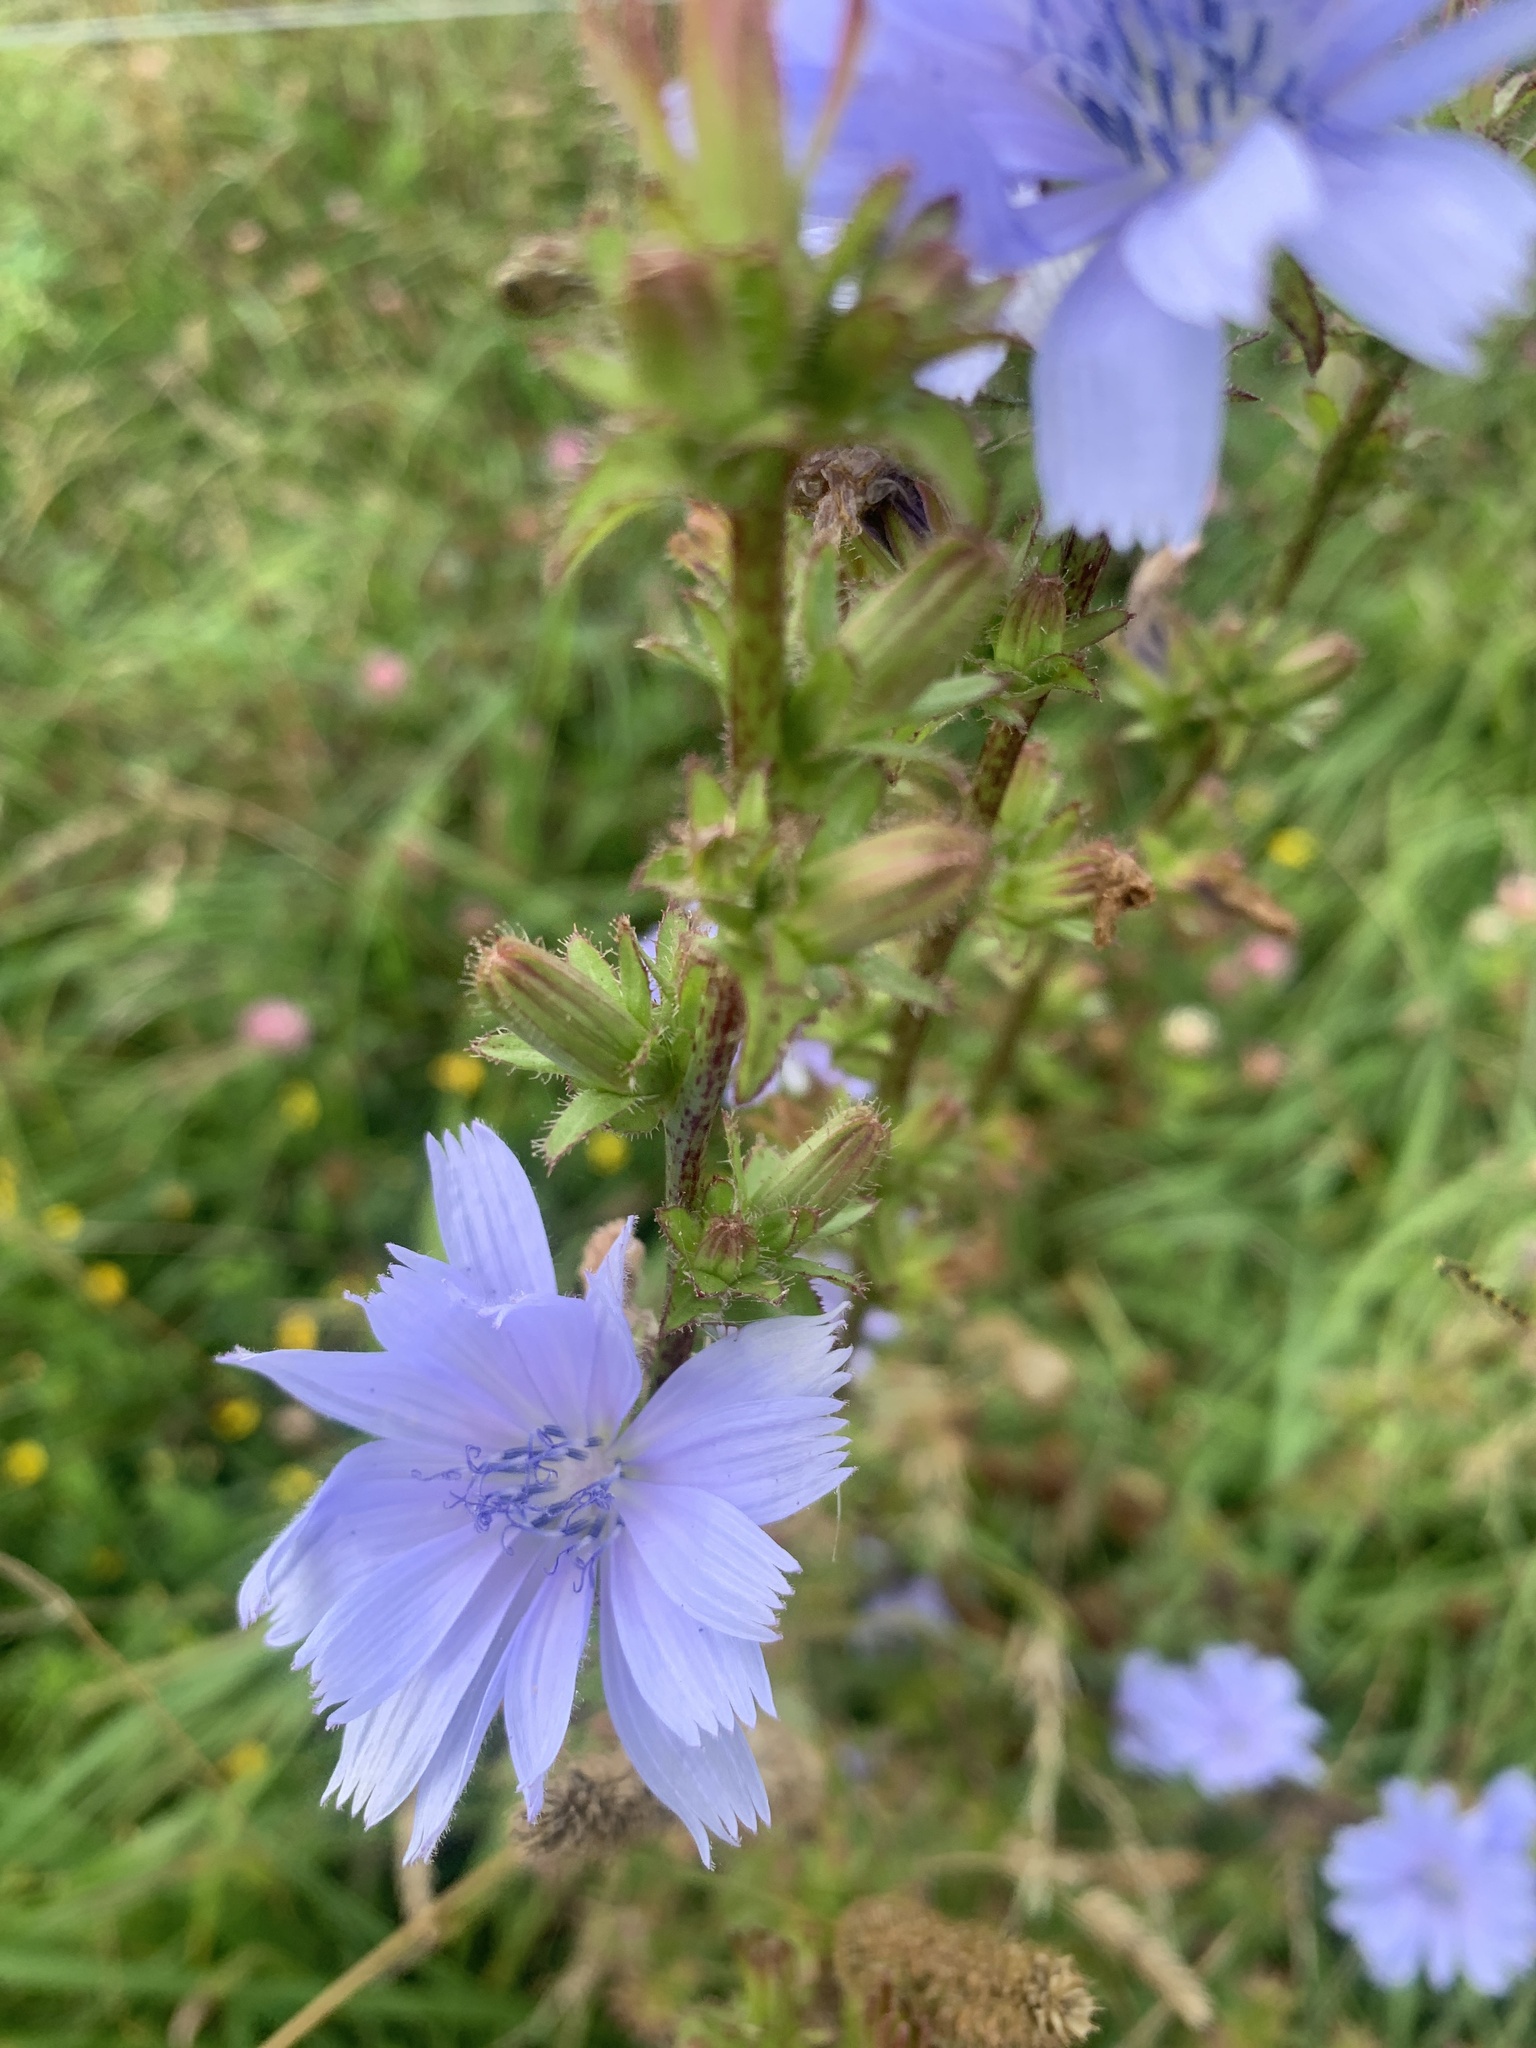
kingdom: Plantae
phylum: Tracheophyta
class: Magnoliopsida
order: Asterales
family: Asteraceae
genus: Cichorium
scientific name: Cichorium intybus
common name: Chicory
